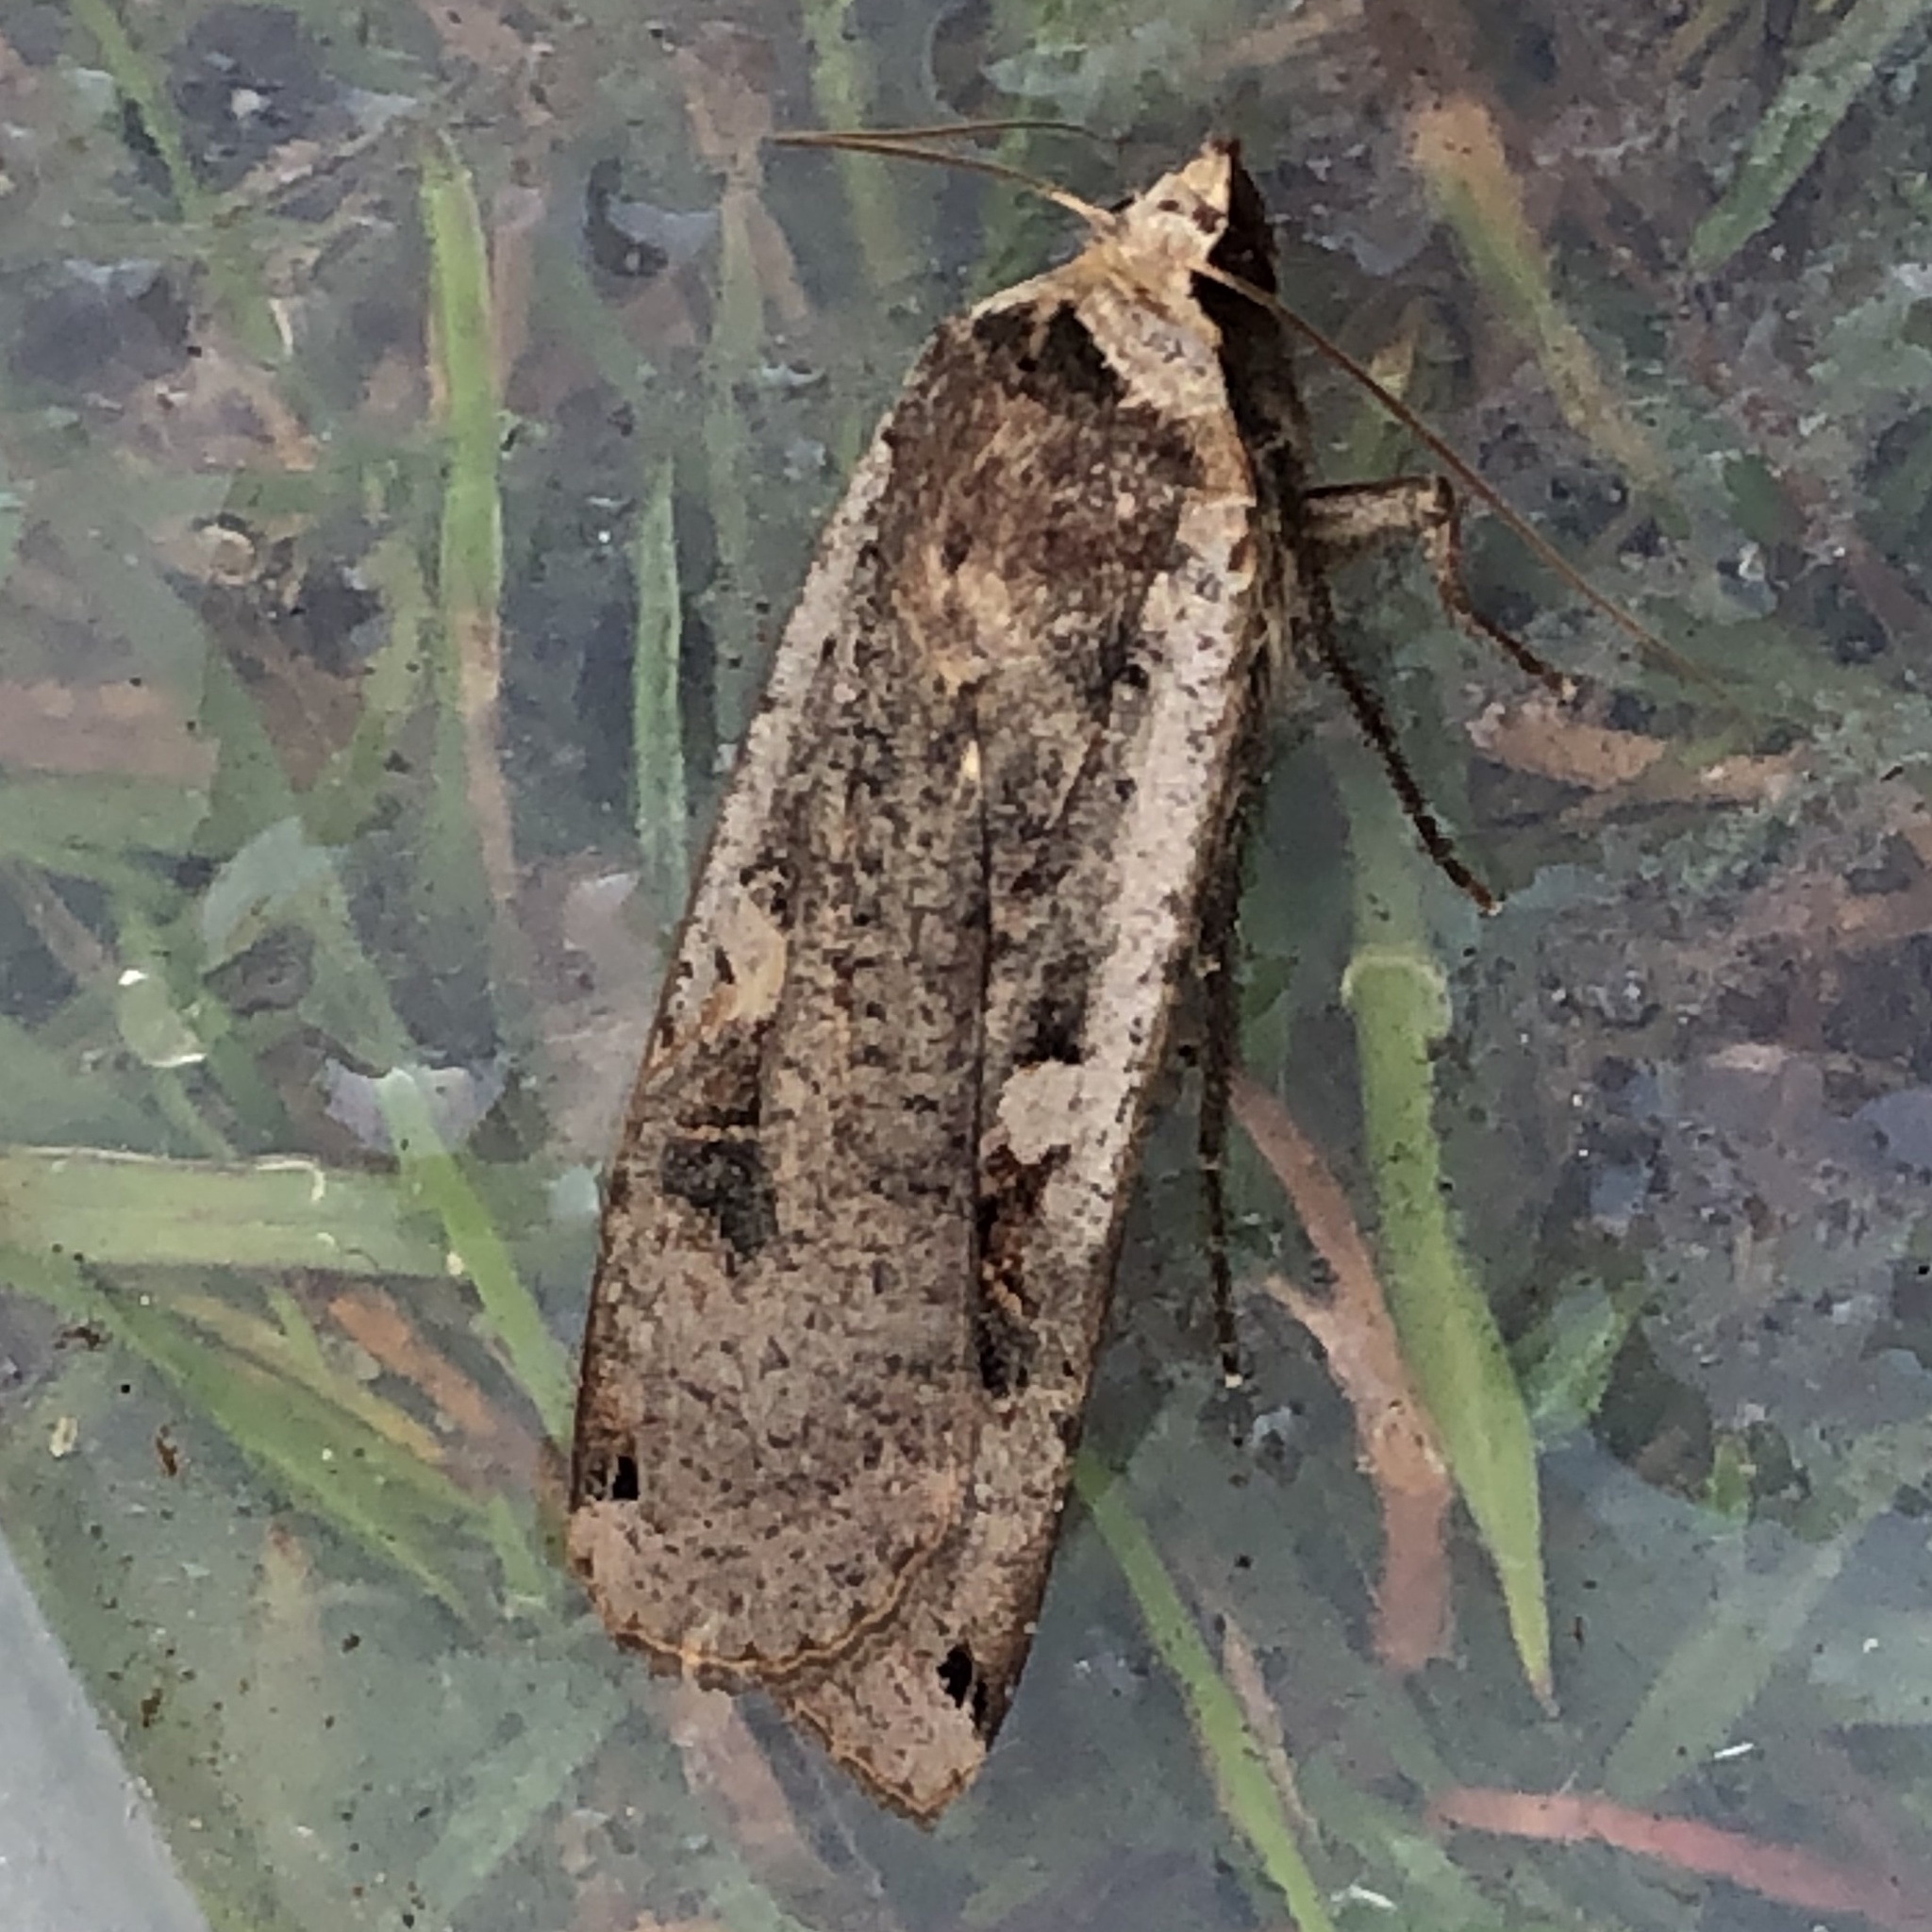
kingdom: Animalia
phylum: Arthropoda
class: Insecta
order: Lepidoptera
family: Noctuidae
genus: Noctua
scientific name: Noctua pronuba
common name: Large yellow underwing
